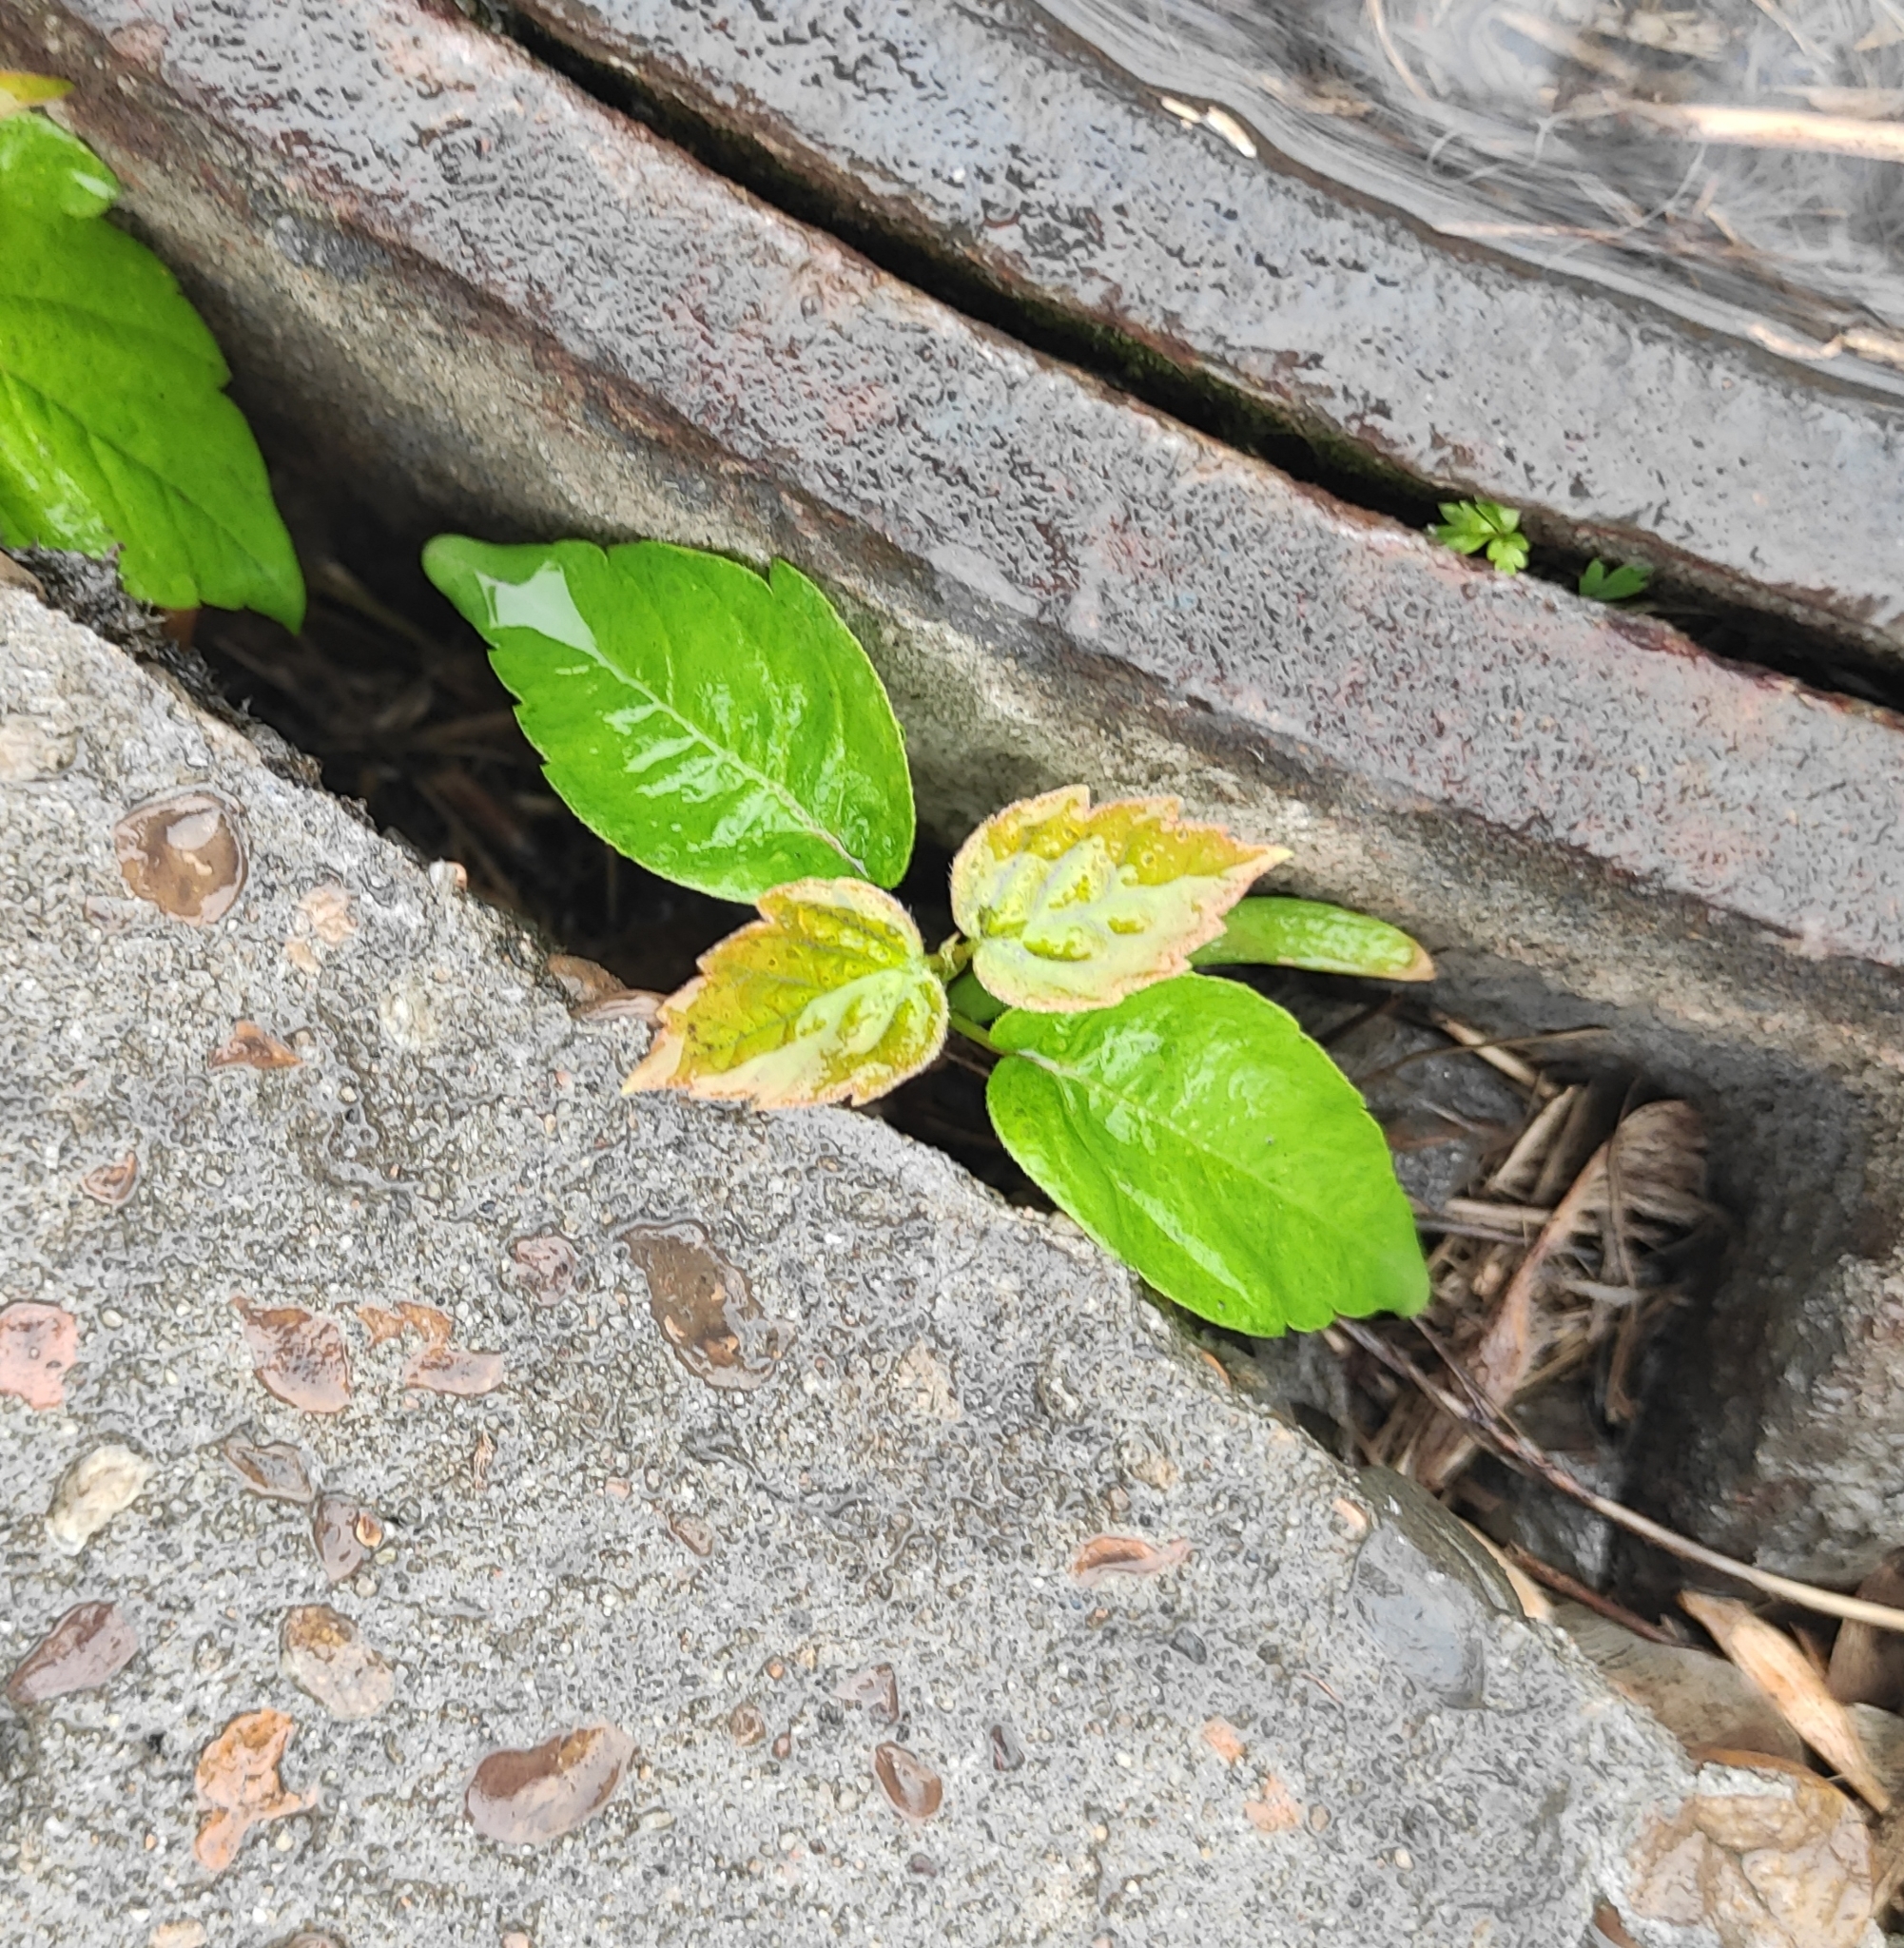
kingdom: Plantae
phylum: Tracheophyta
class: Magnoliopsida
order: Sapindales
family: Sapindaceae
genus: Acer
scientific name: Acer negundo
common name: Ashleaf maple
